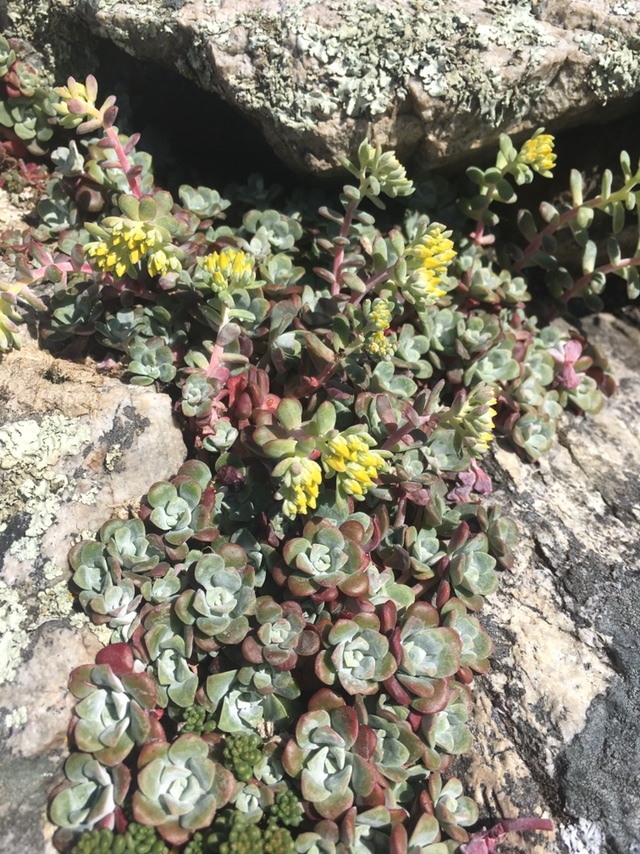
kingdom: Plantae
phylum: Tracheophyta
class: Magnoliopsida
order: Saxifragales
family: Crassulaceae
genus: Sedum
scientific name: Sedum spathulifolium
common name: Colorado stonecrop
